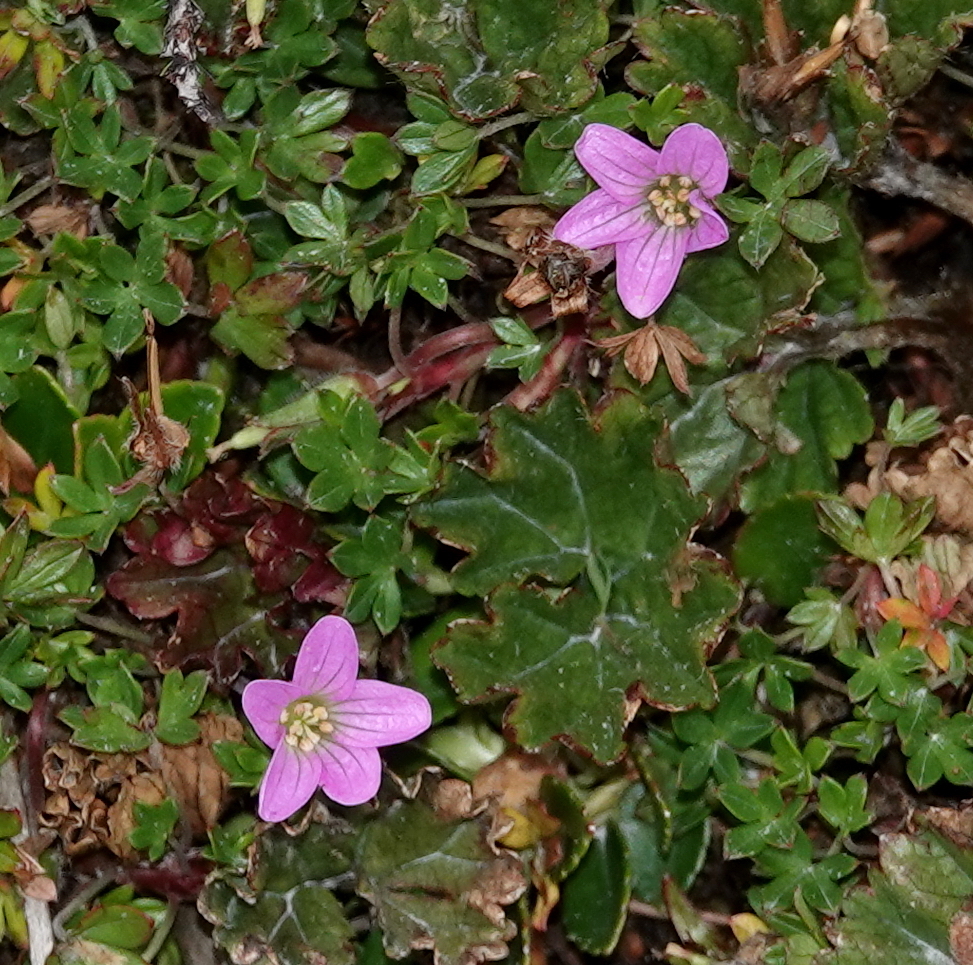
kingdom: Plantae
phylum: Tracheophyta
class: Magnoliopsida
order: Geraniales
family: Geraniaceae
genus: Geranium
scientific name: Geranium sibbaldioides
